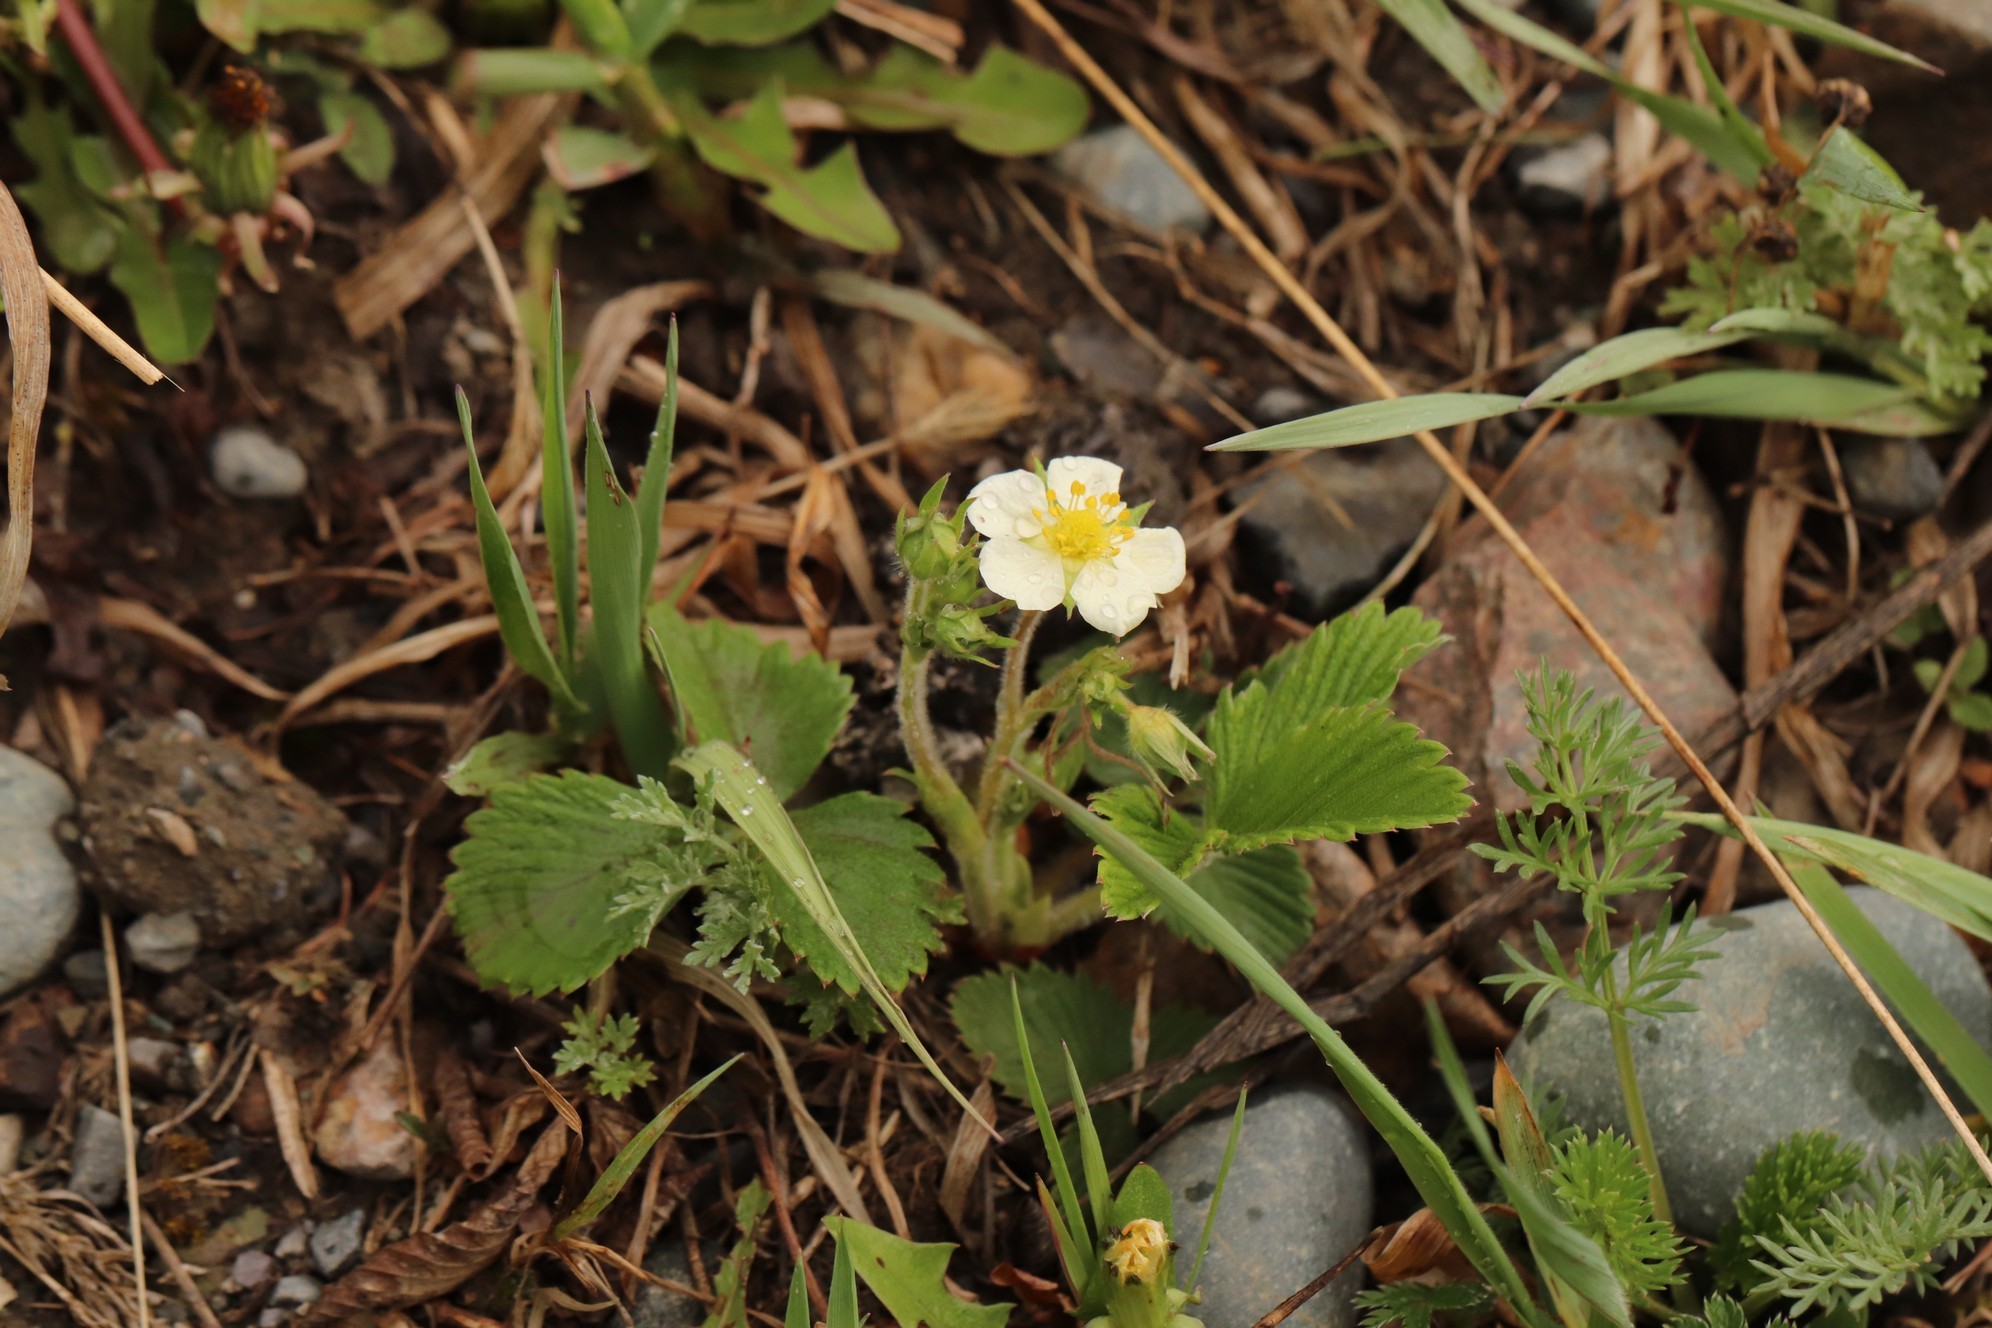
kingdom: Plantae
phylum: Tracheophyta
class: Magnoliopsida
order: Rosales
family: Rosaceae
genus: Fragaria
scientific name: Fragaria viridis
